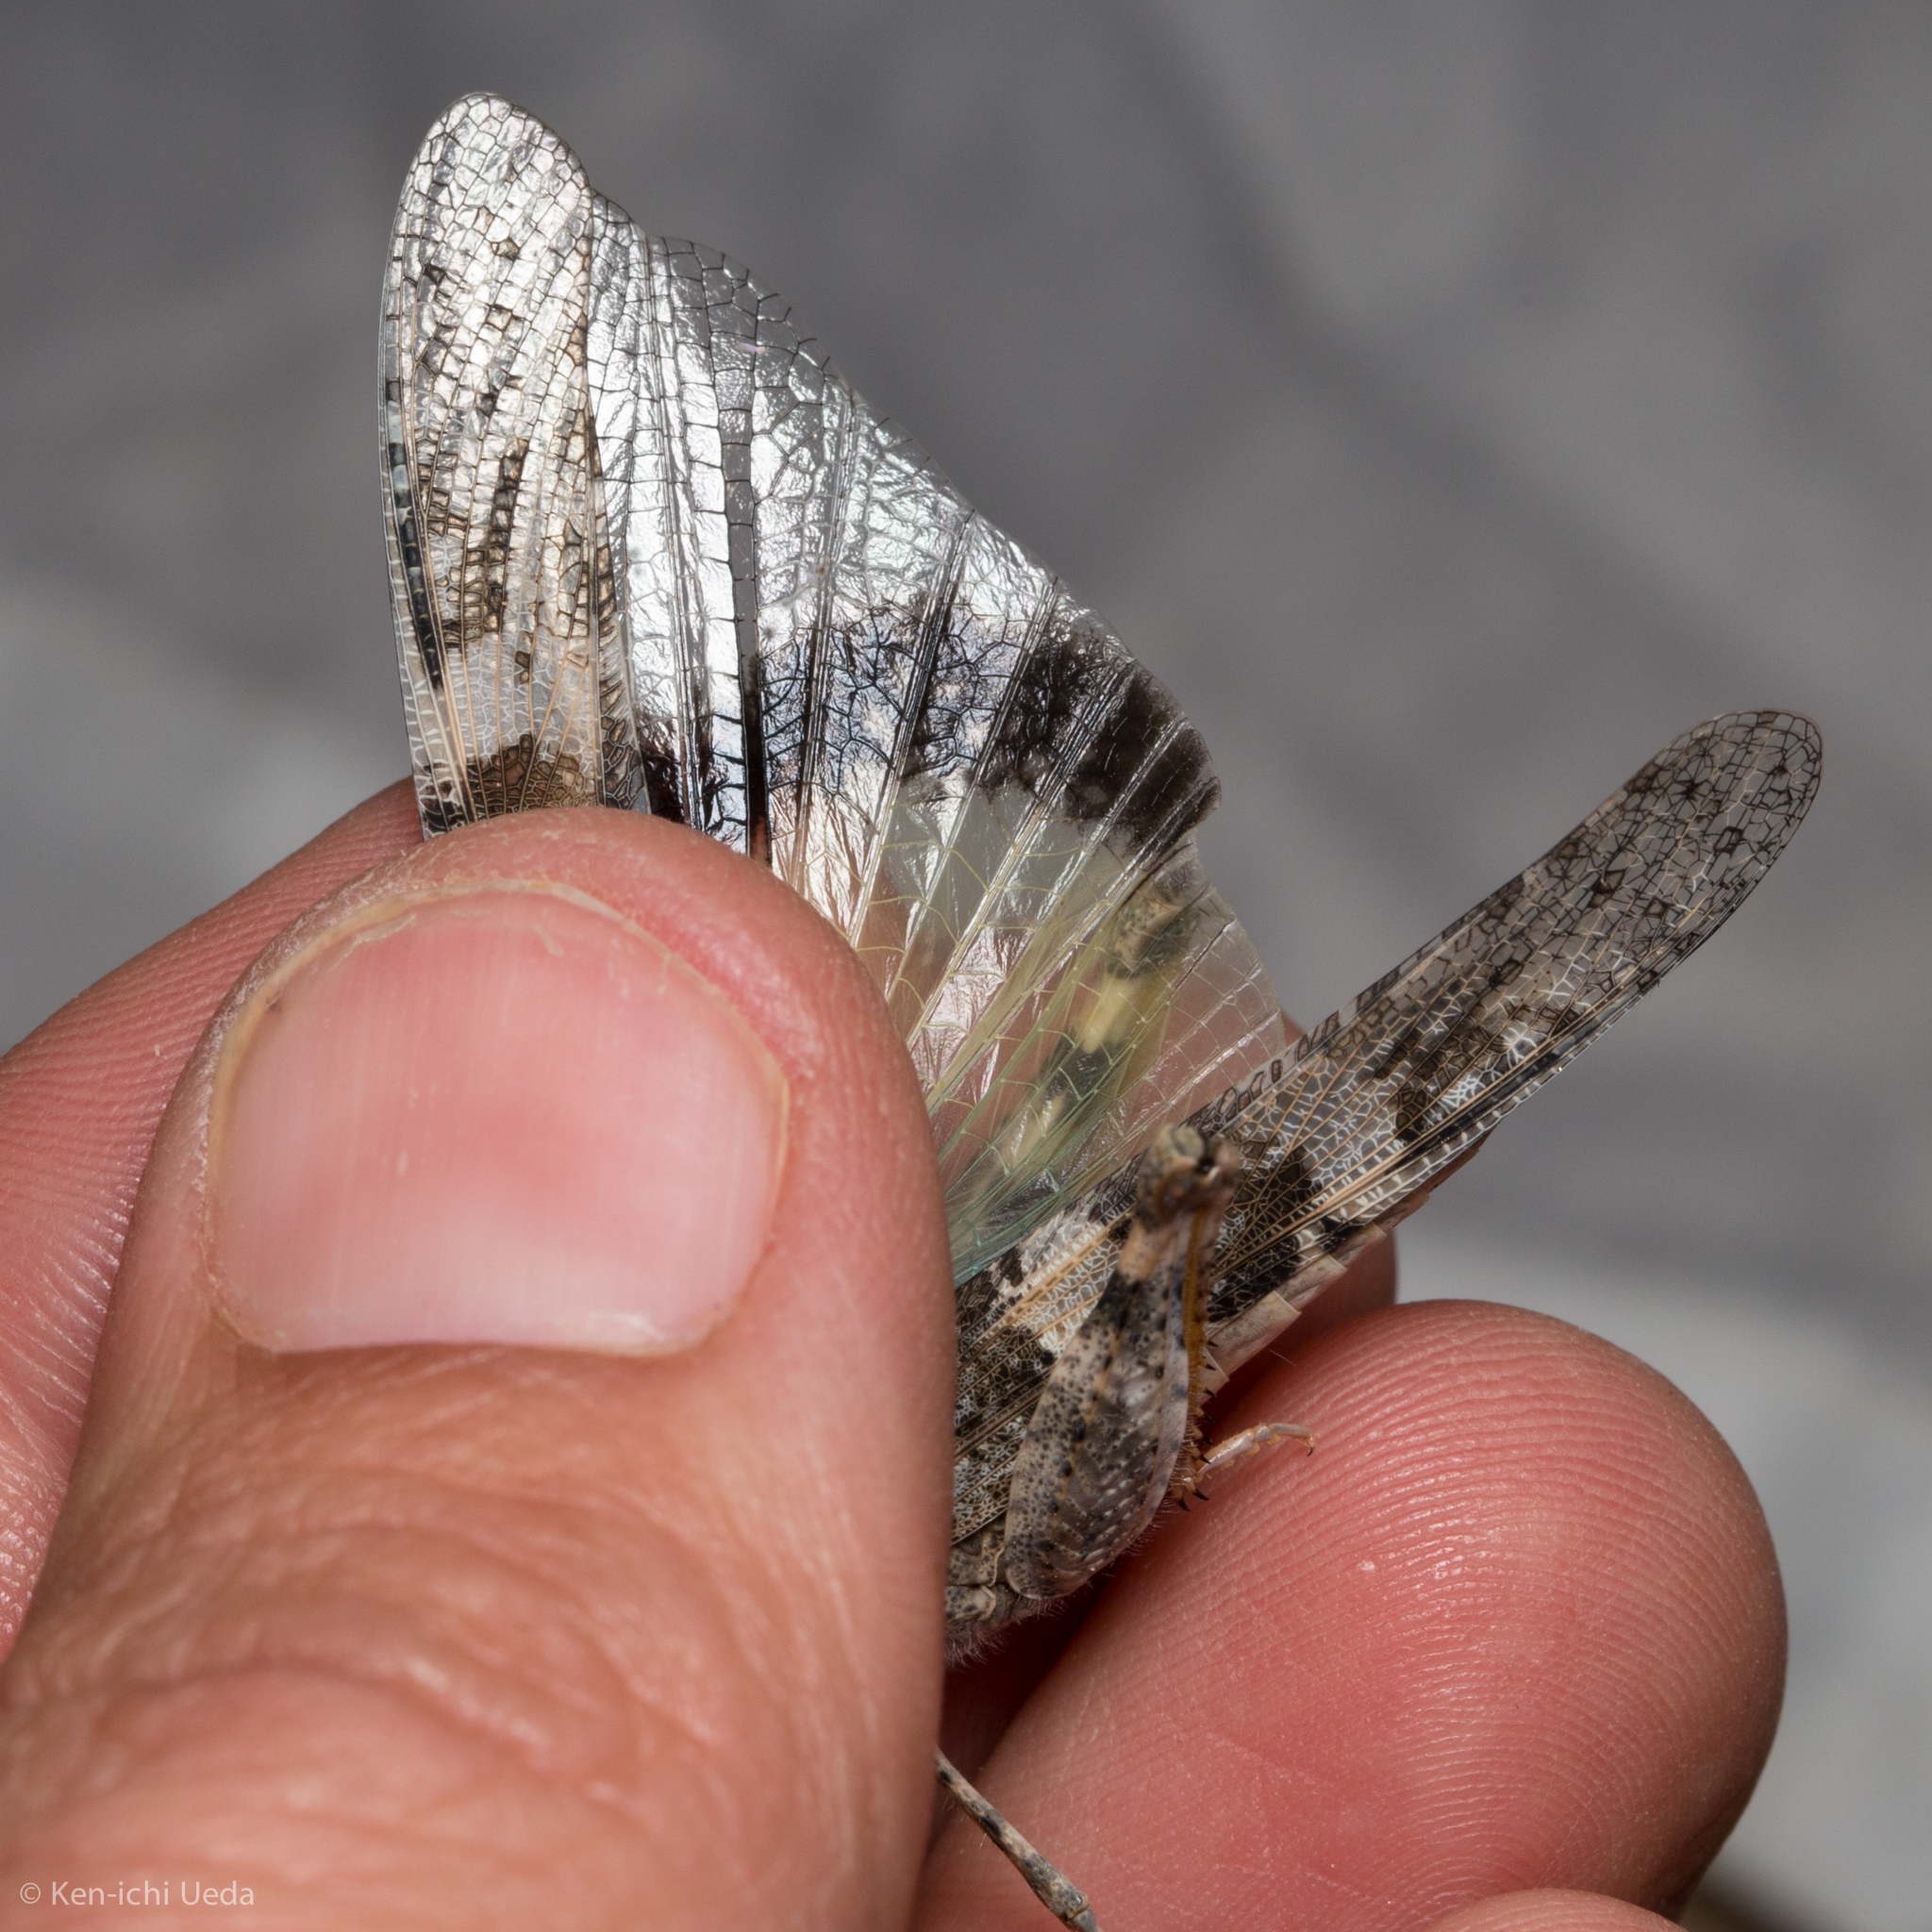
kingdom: Animalia
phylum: Arthropoda
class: Insecta
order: Orthoptera
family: Acrididae
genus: Trimerotropis
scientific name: Trimerotropis pallidipennis
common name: Pallid-winged grasshopper
